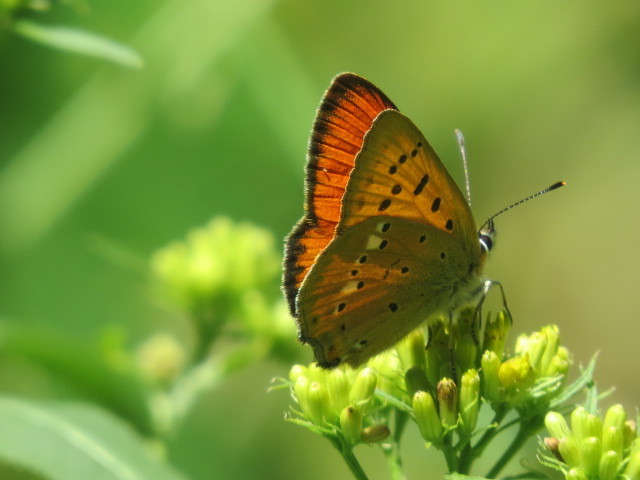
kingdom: Animalia
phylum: Arthropoda
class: Insecta
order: Lepidoptera
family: Lycaenidae
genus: Lycaena
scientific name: Lycaena virgaureae
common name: Scarce copper
